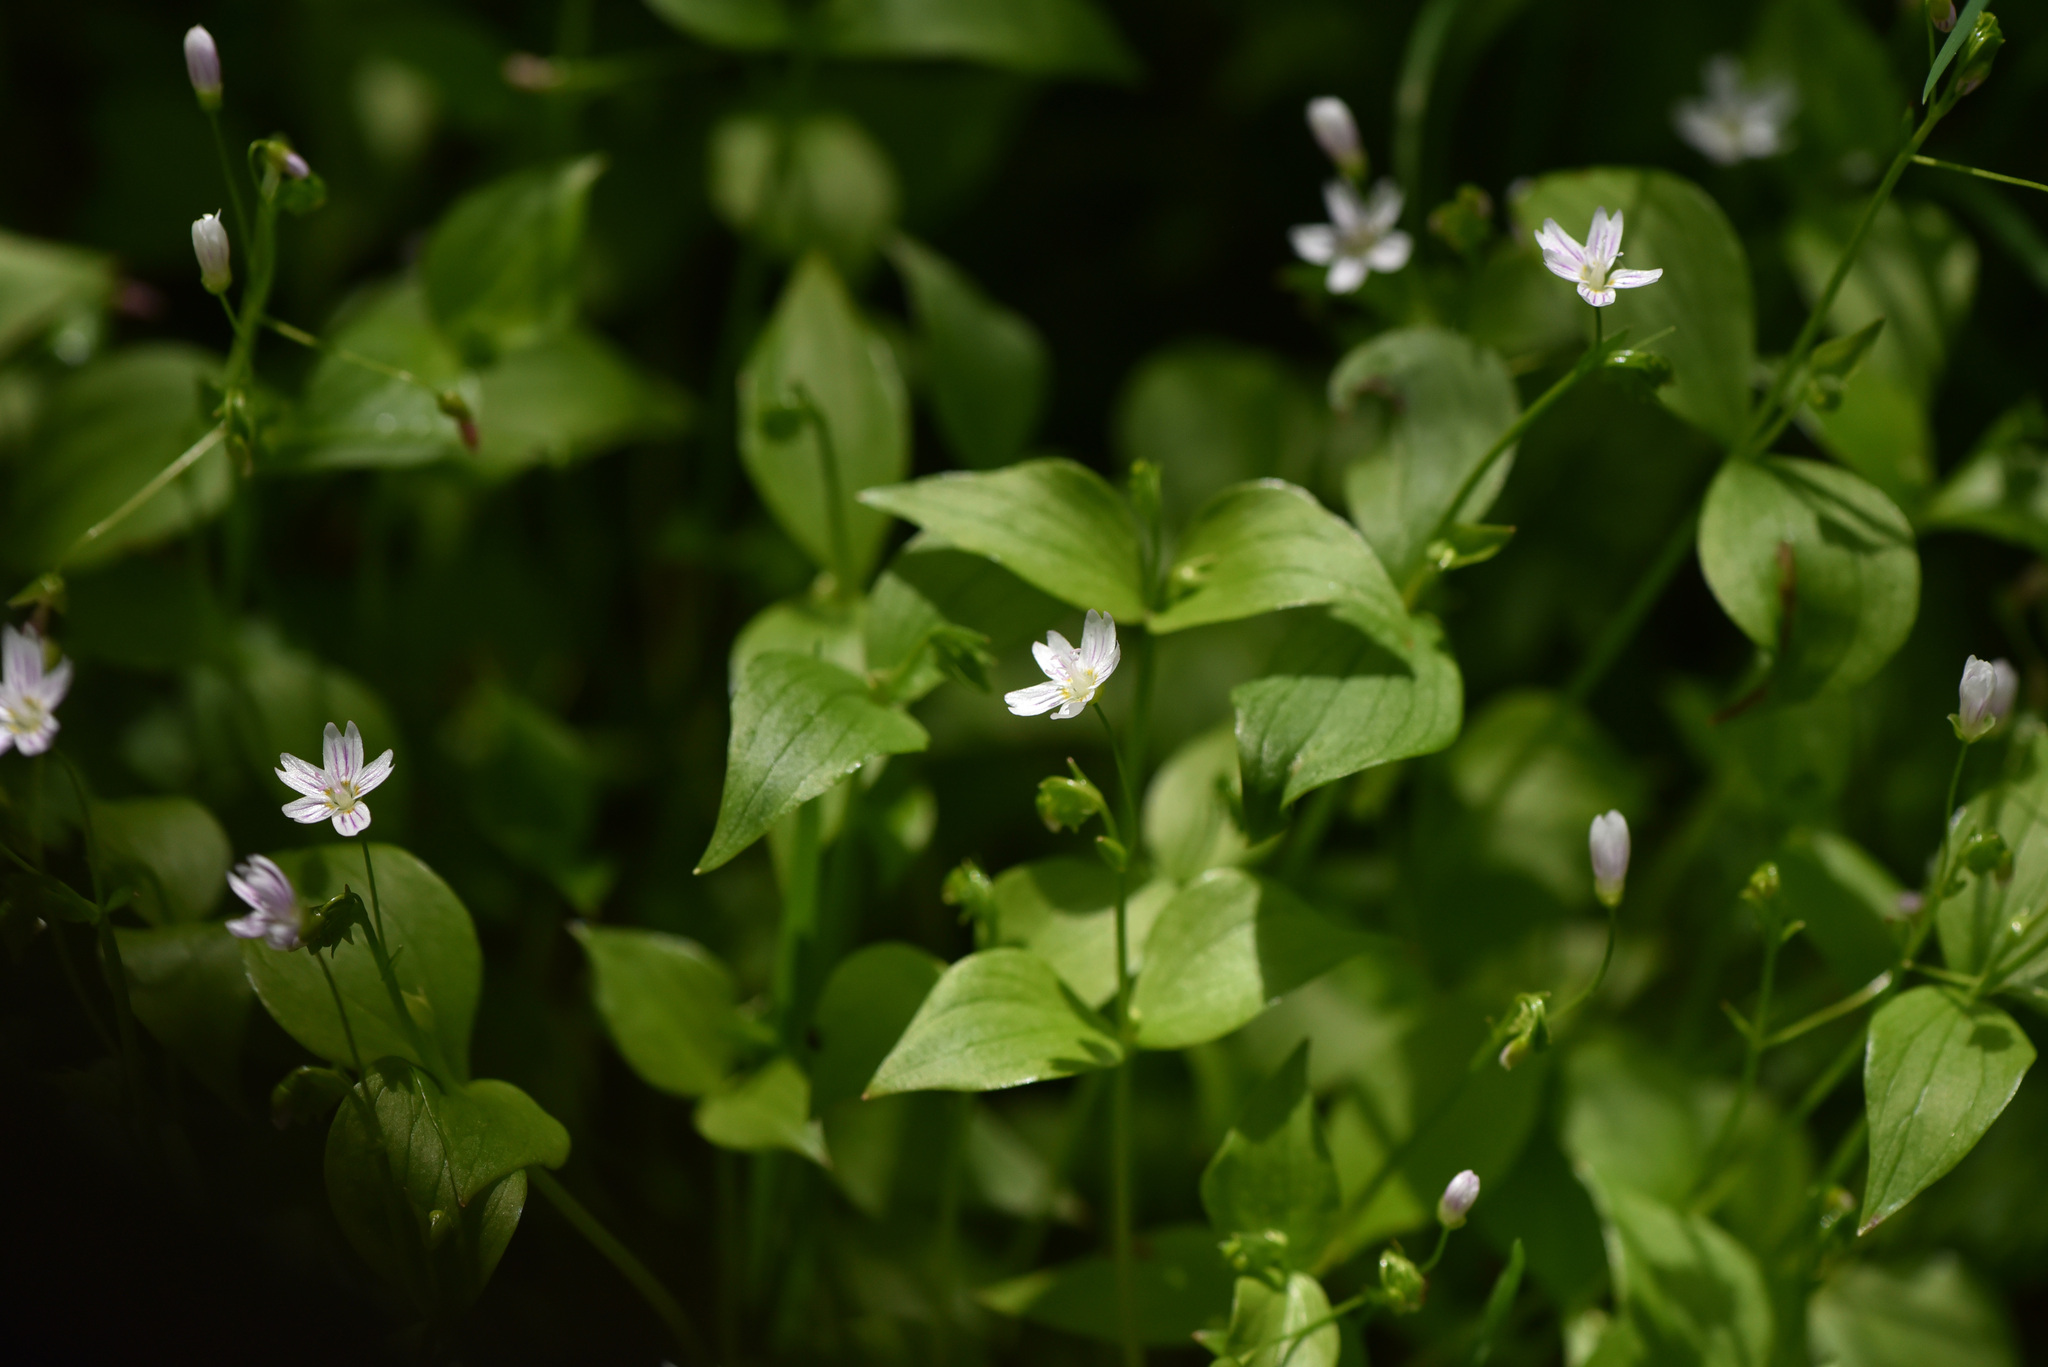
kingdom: Plantae
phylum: Tracheophyta
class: Magnoliopsida
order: Caryophyllales
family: Montiaceae
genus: Claytonia
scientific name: Claytonia sibirica
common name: Pink purslane
